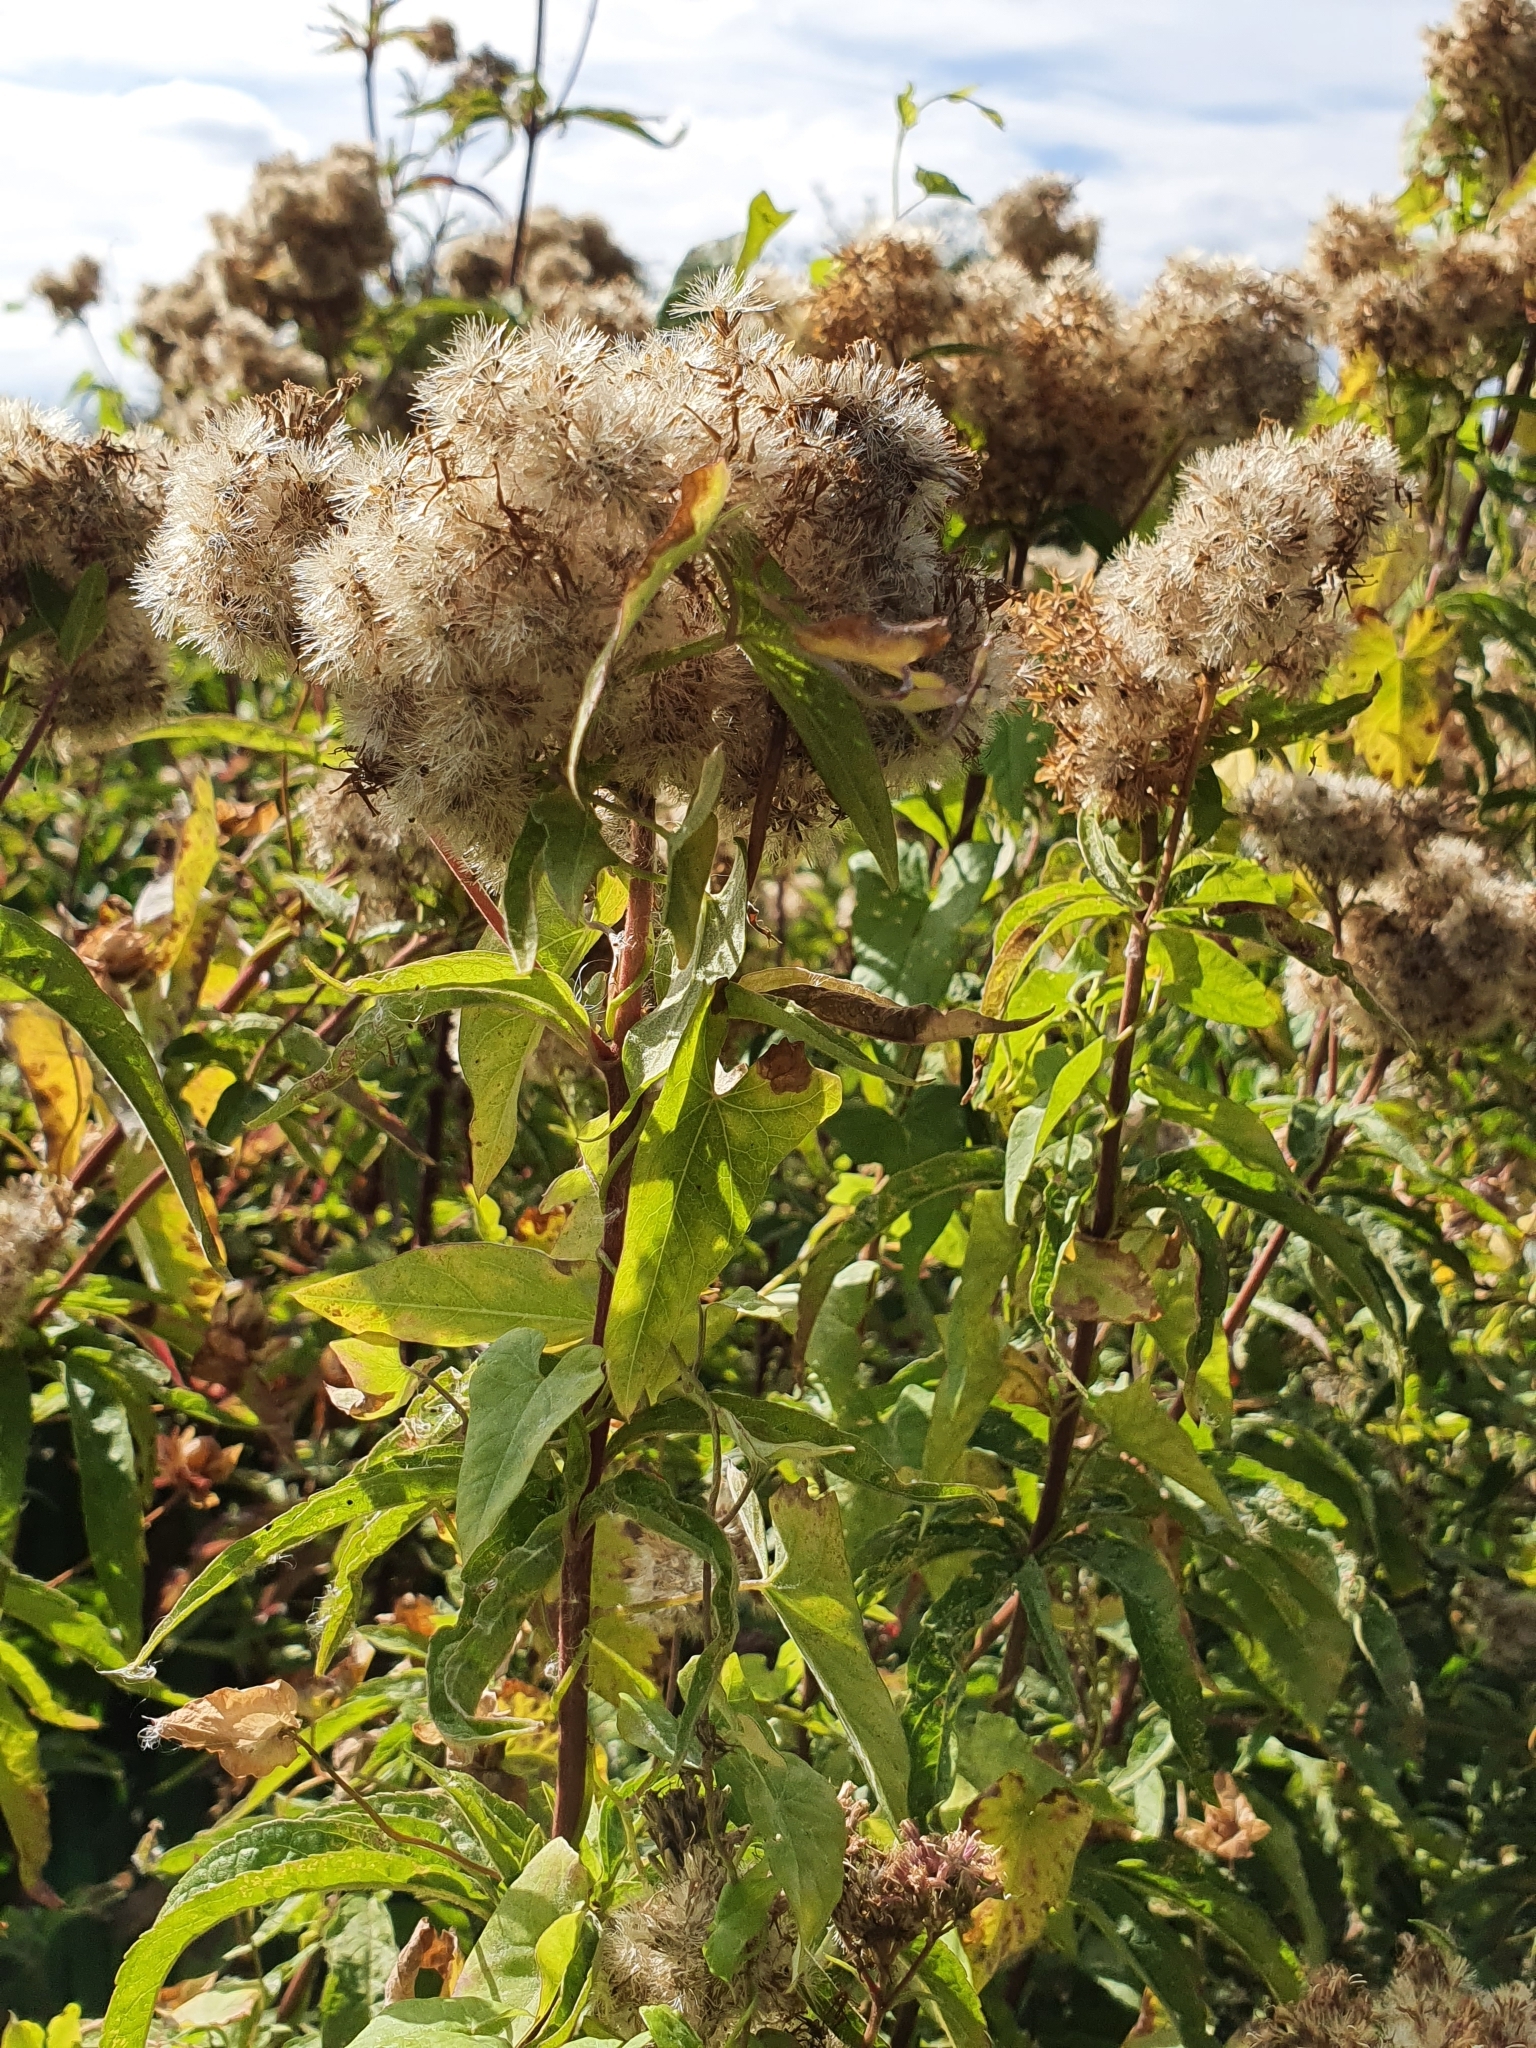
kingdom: Plantae
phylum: Tracheophyta
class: Magnoliopsida
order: Asterales
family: Asteraceae
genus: Eupatorium
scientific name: Eupatorium cannabinum
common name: Hemp-agrimony
